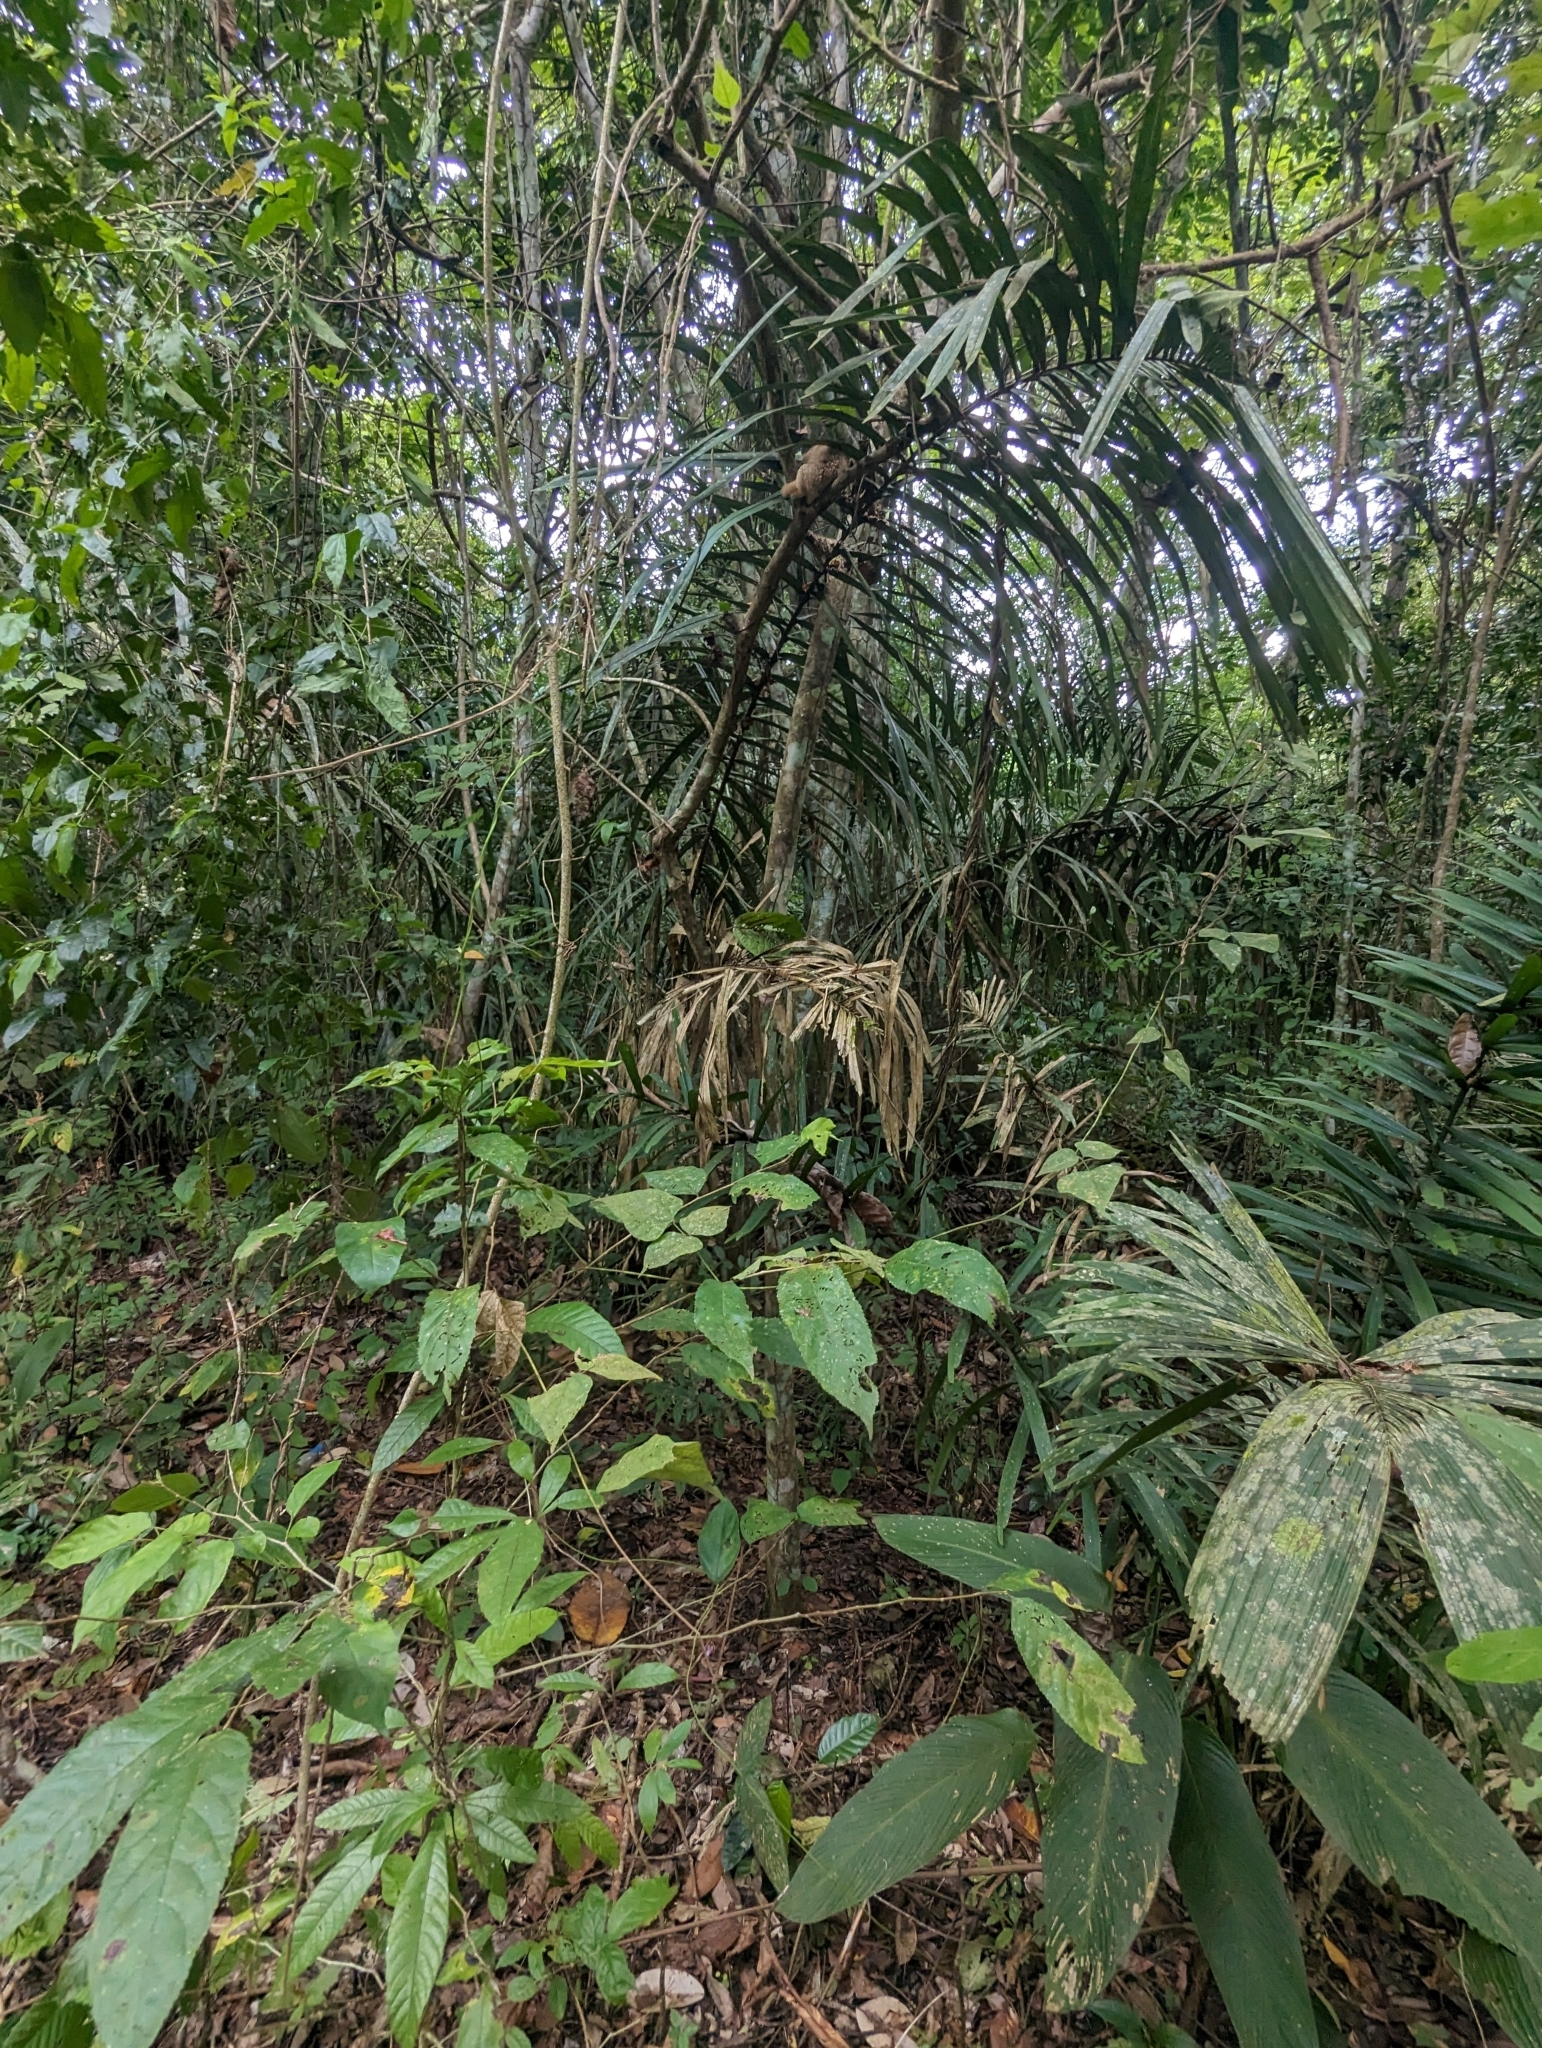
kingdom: Animalia
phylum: Chordata
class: Mammalia
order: Pilosa
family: Cyclopedidae
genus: Cyclopes
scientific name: Cyclopes dorsalis
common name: Central american silky anteater
